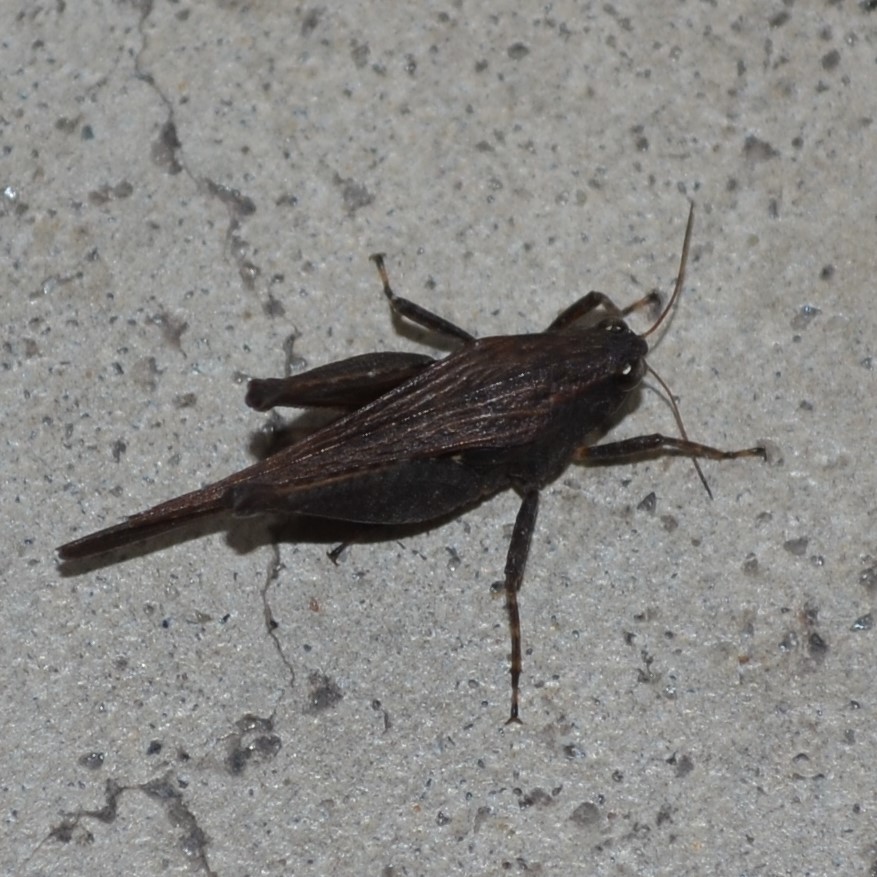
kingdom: Animalia
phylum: Arthropoda
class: Insecta
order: Orthoptera
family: Tetrigidae
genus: Tettigidea
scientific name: Tettigidea laterale
